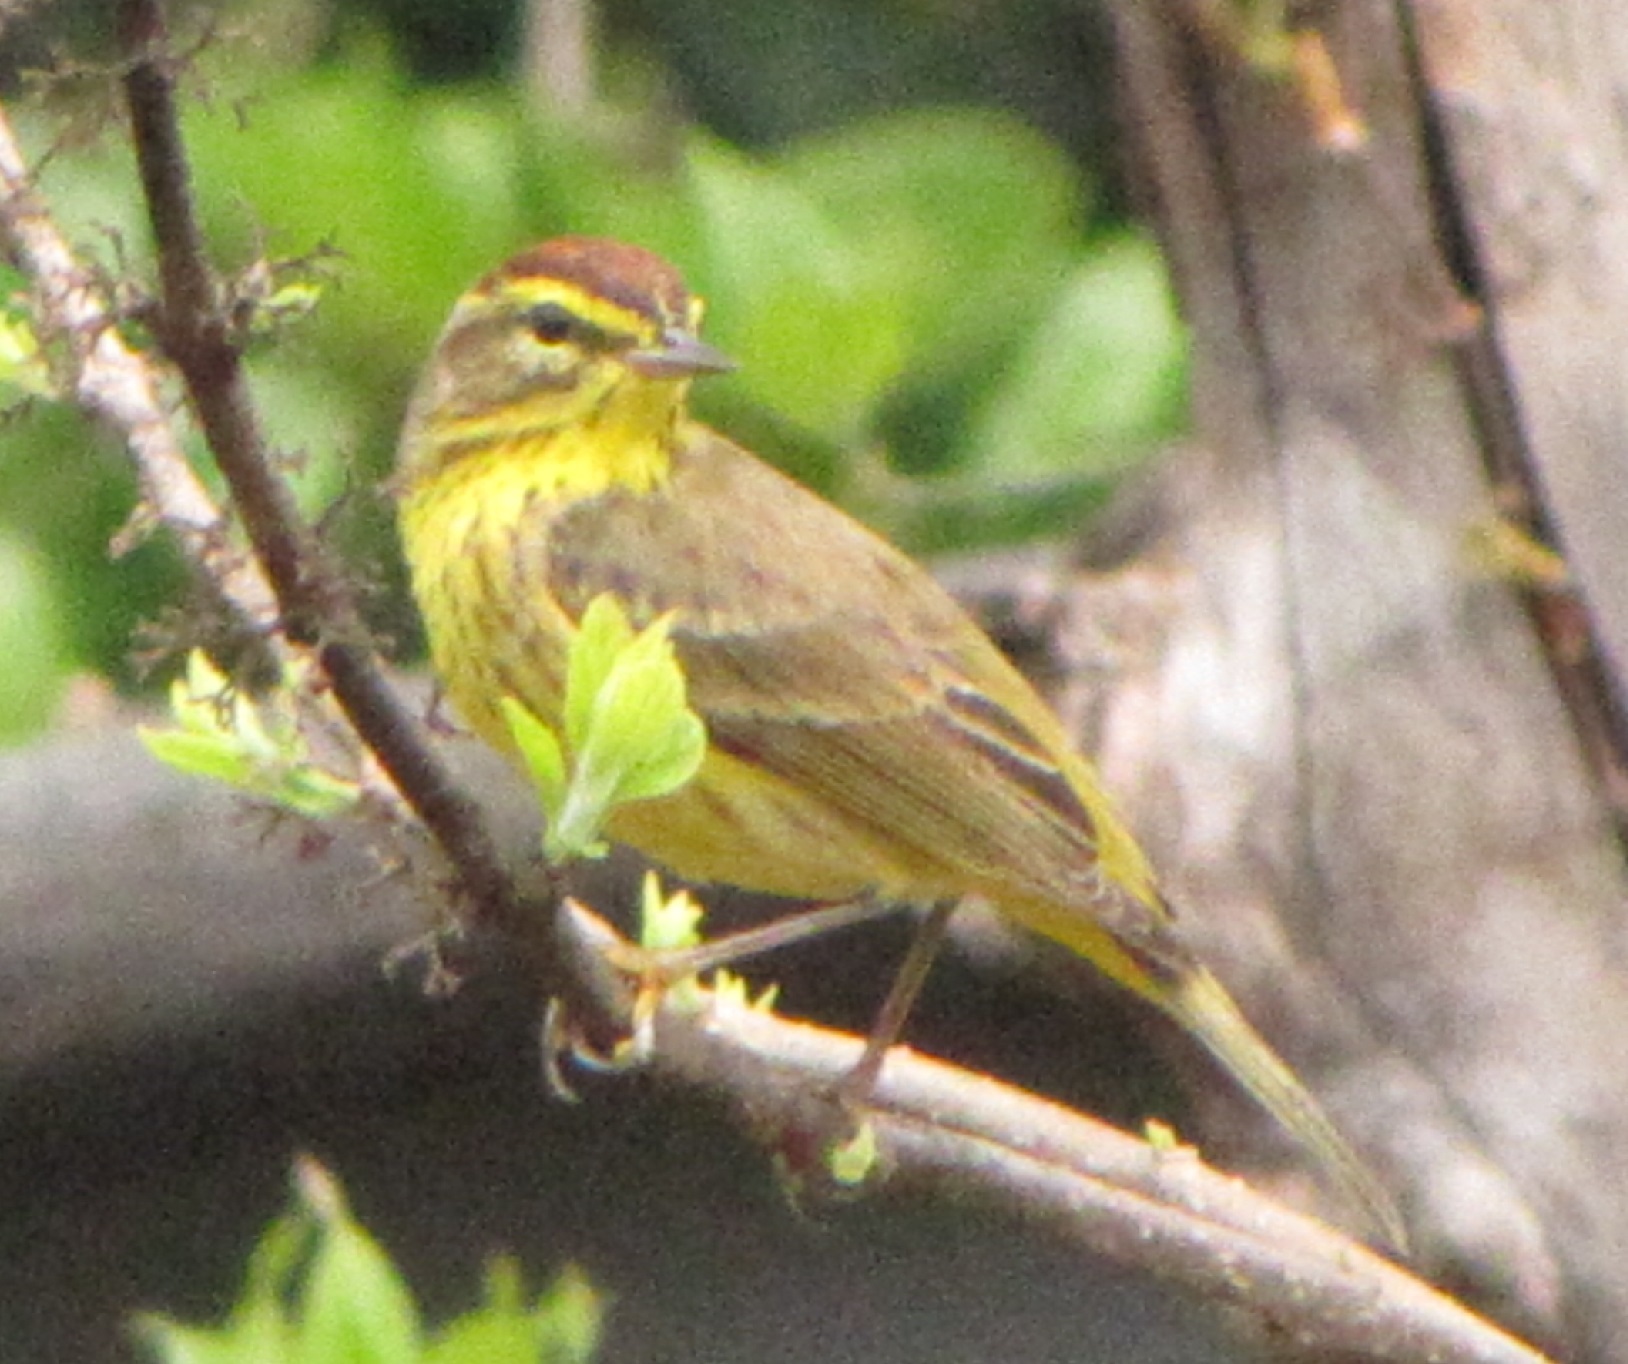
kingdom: Animalia
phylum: Chordata
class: Aves
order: Passeriformes
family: Parulidae
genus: Setophaga
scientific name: Setophaga palmarum
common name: Palm warbler
